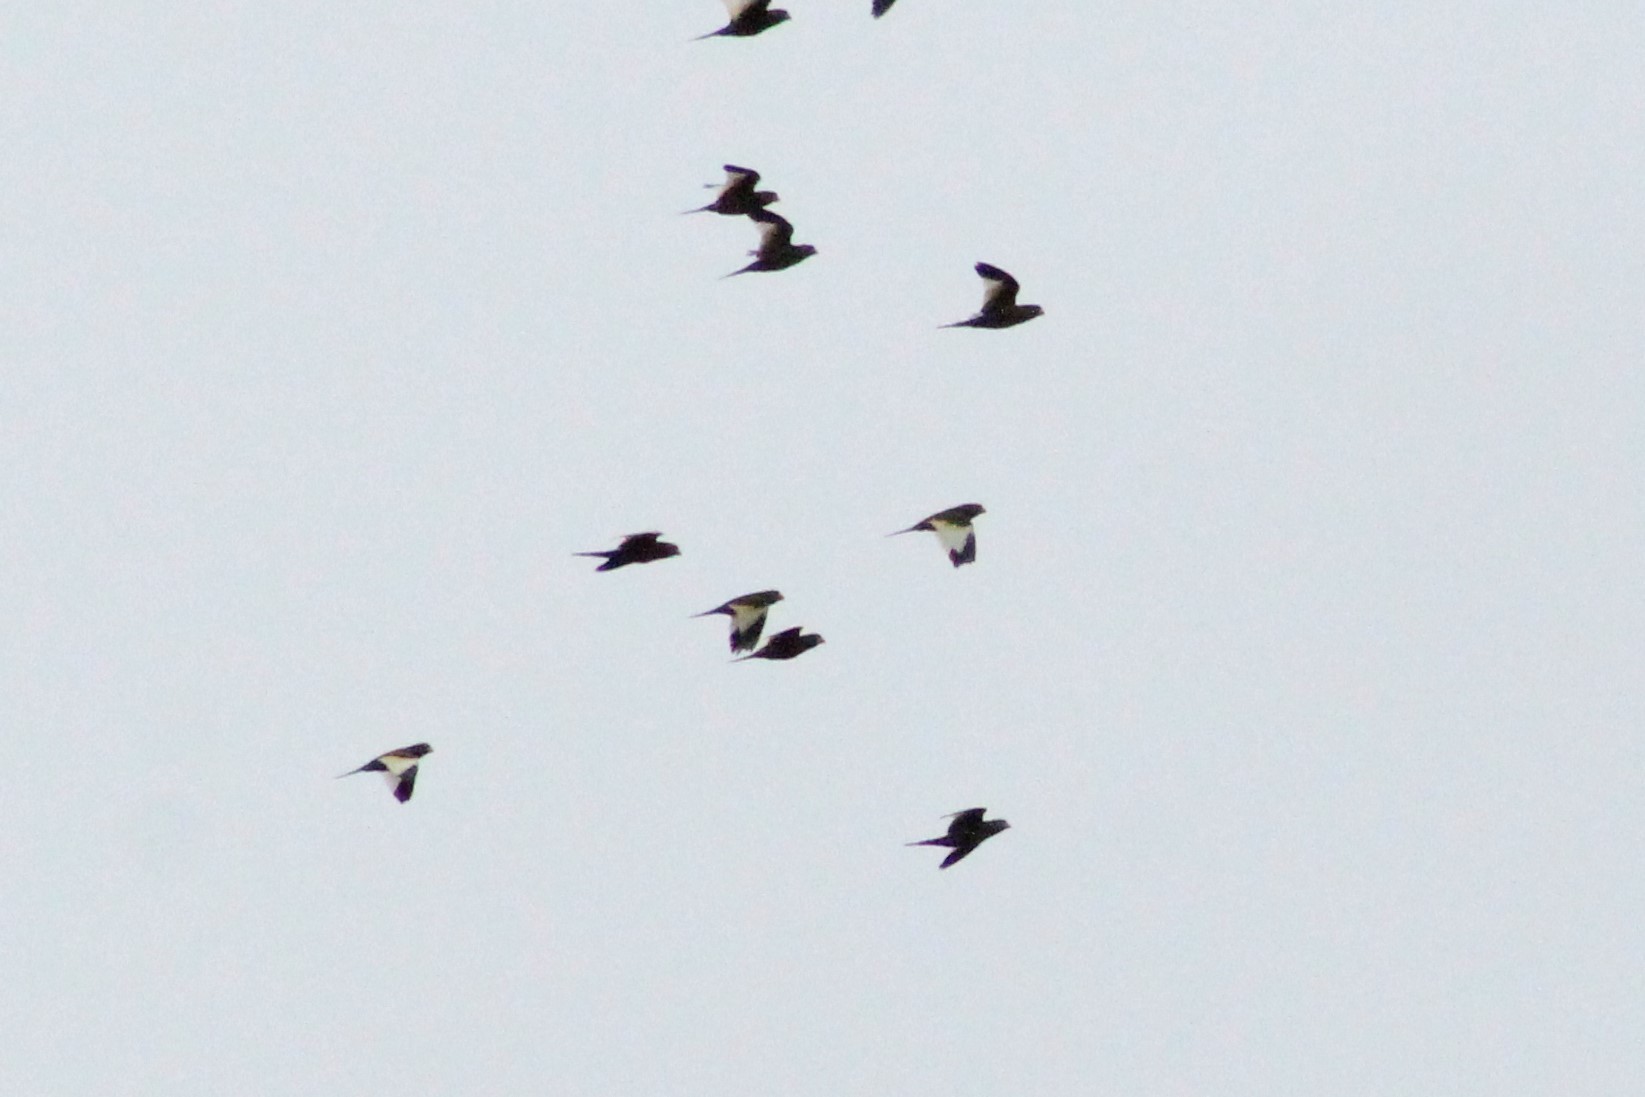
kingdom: Animalia
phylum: Chordata
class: Aves
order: Psittaciformes
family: Psittacidae
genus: Brotogeris
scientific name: Brotogeris versicolurus
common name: White-winged parakeet
